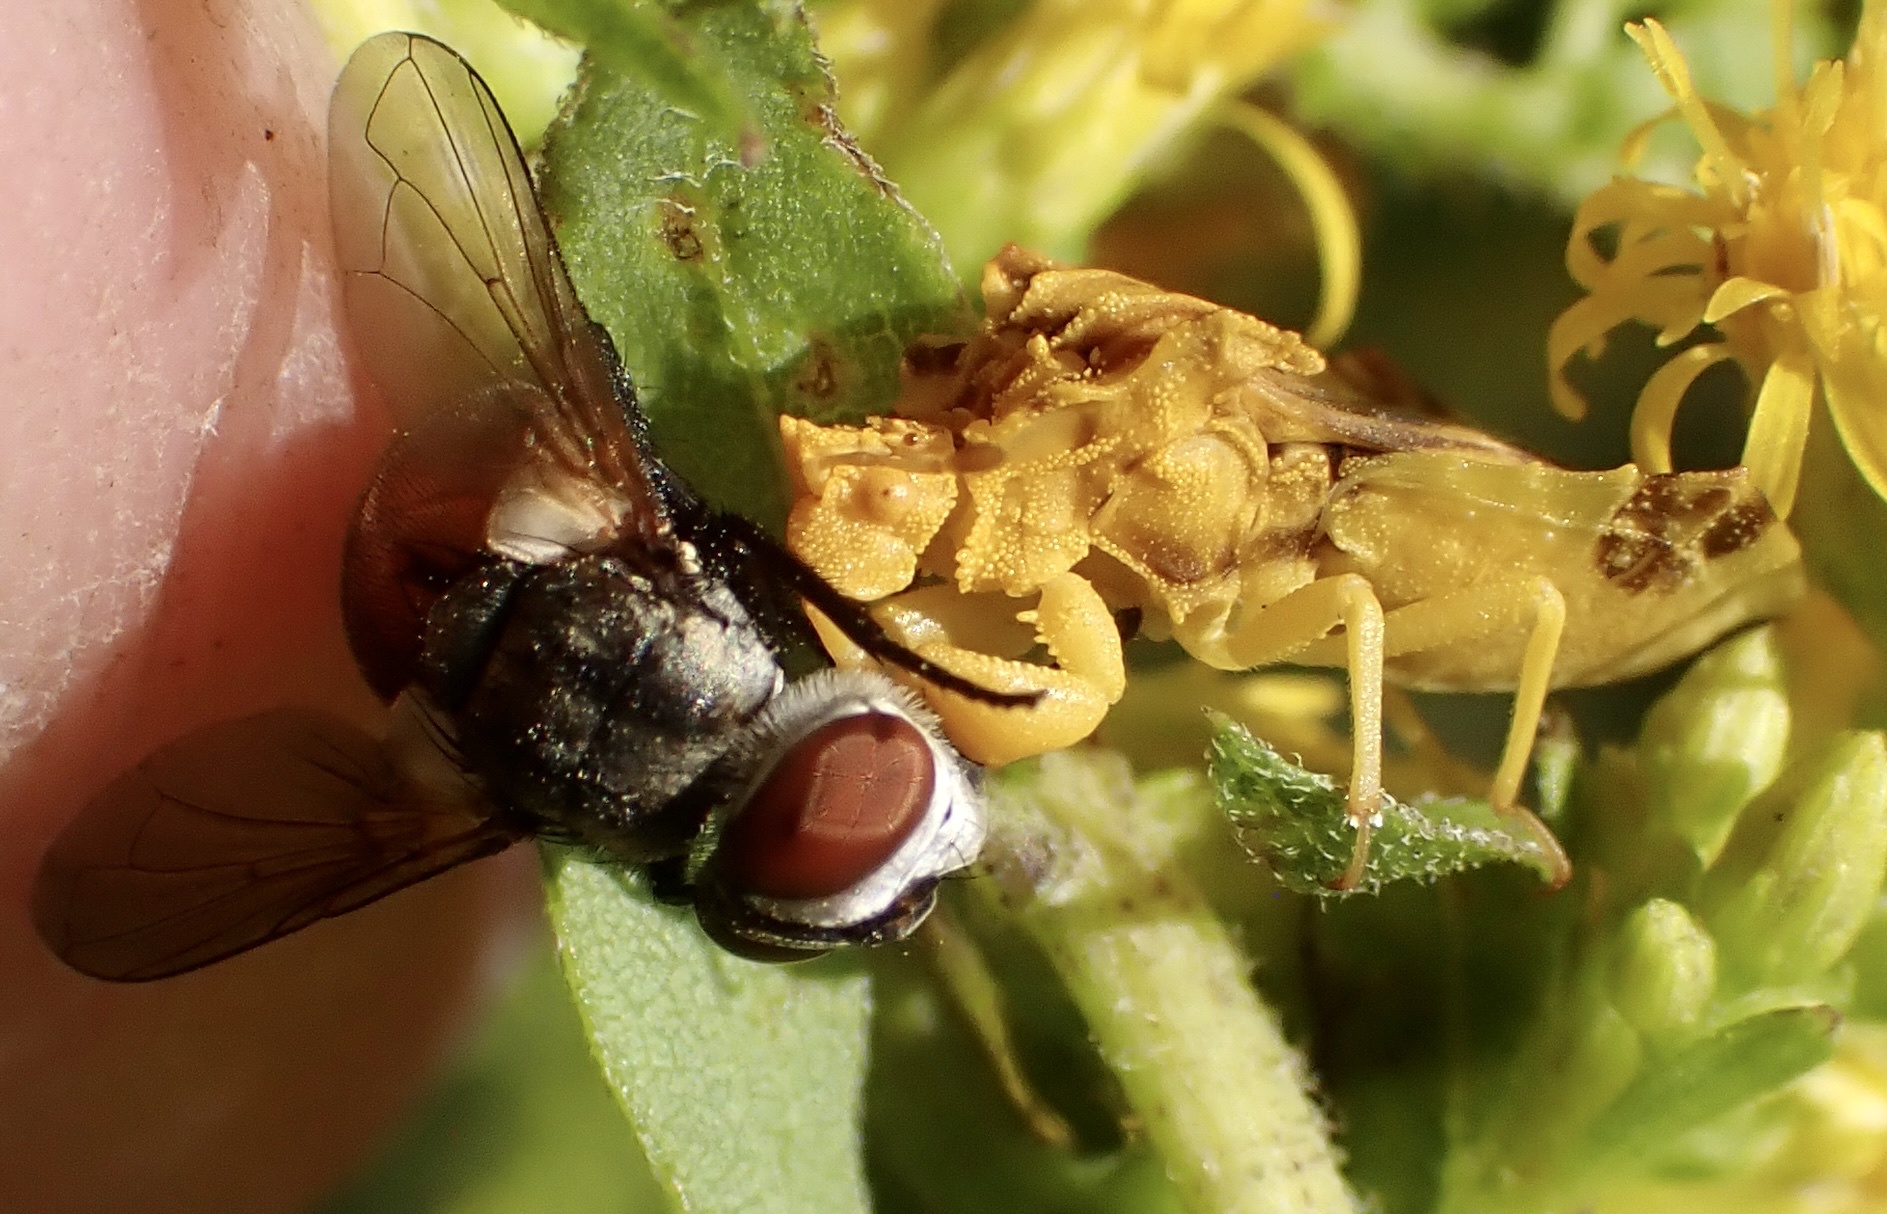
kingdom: Animalia
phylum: Arthropoda
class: Insecta
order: Hemiptera
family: Reduviidae
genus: Phymata
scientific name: Phymata fasciata
